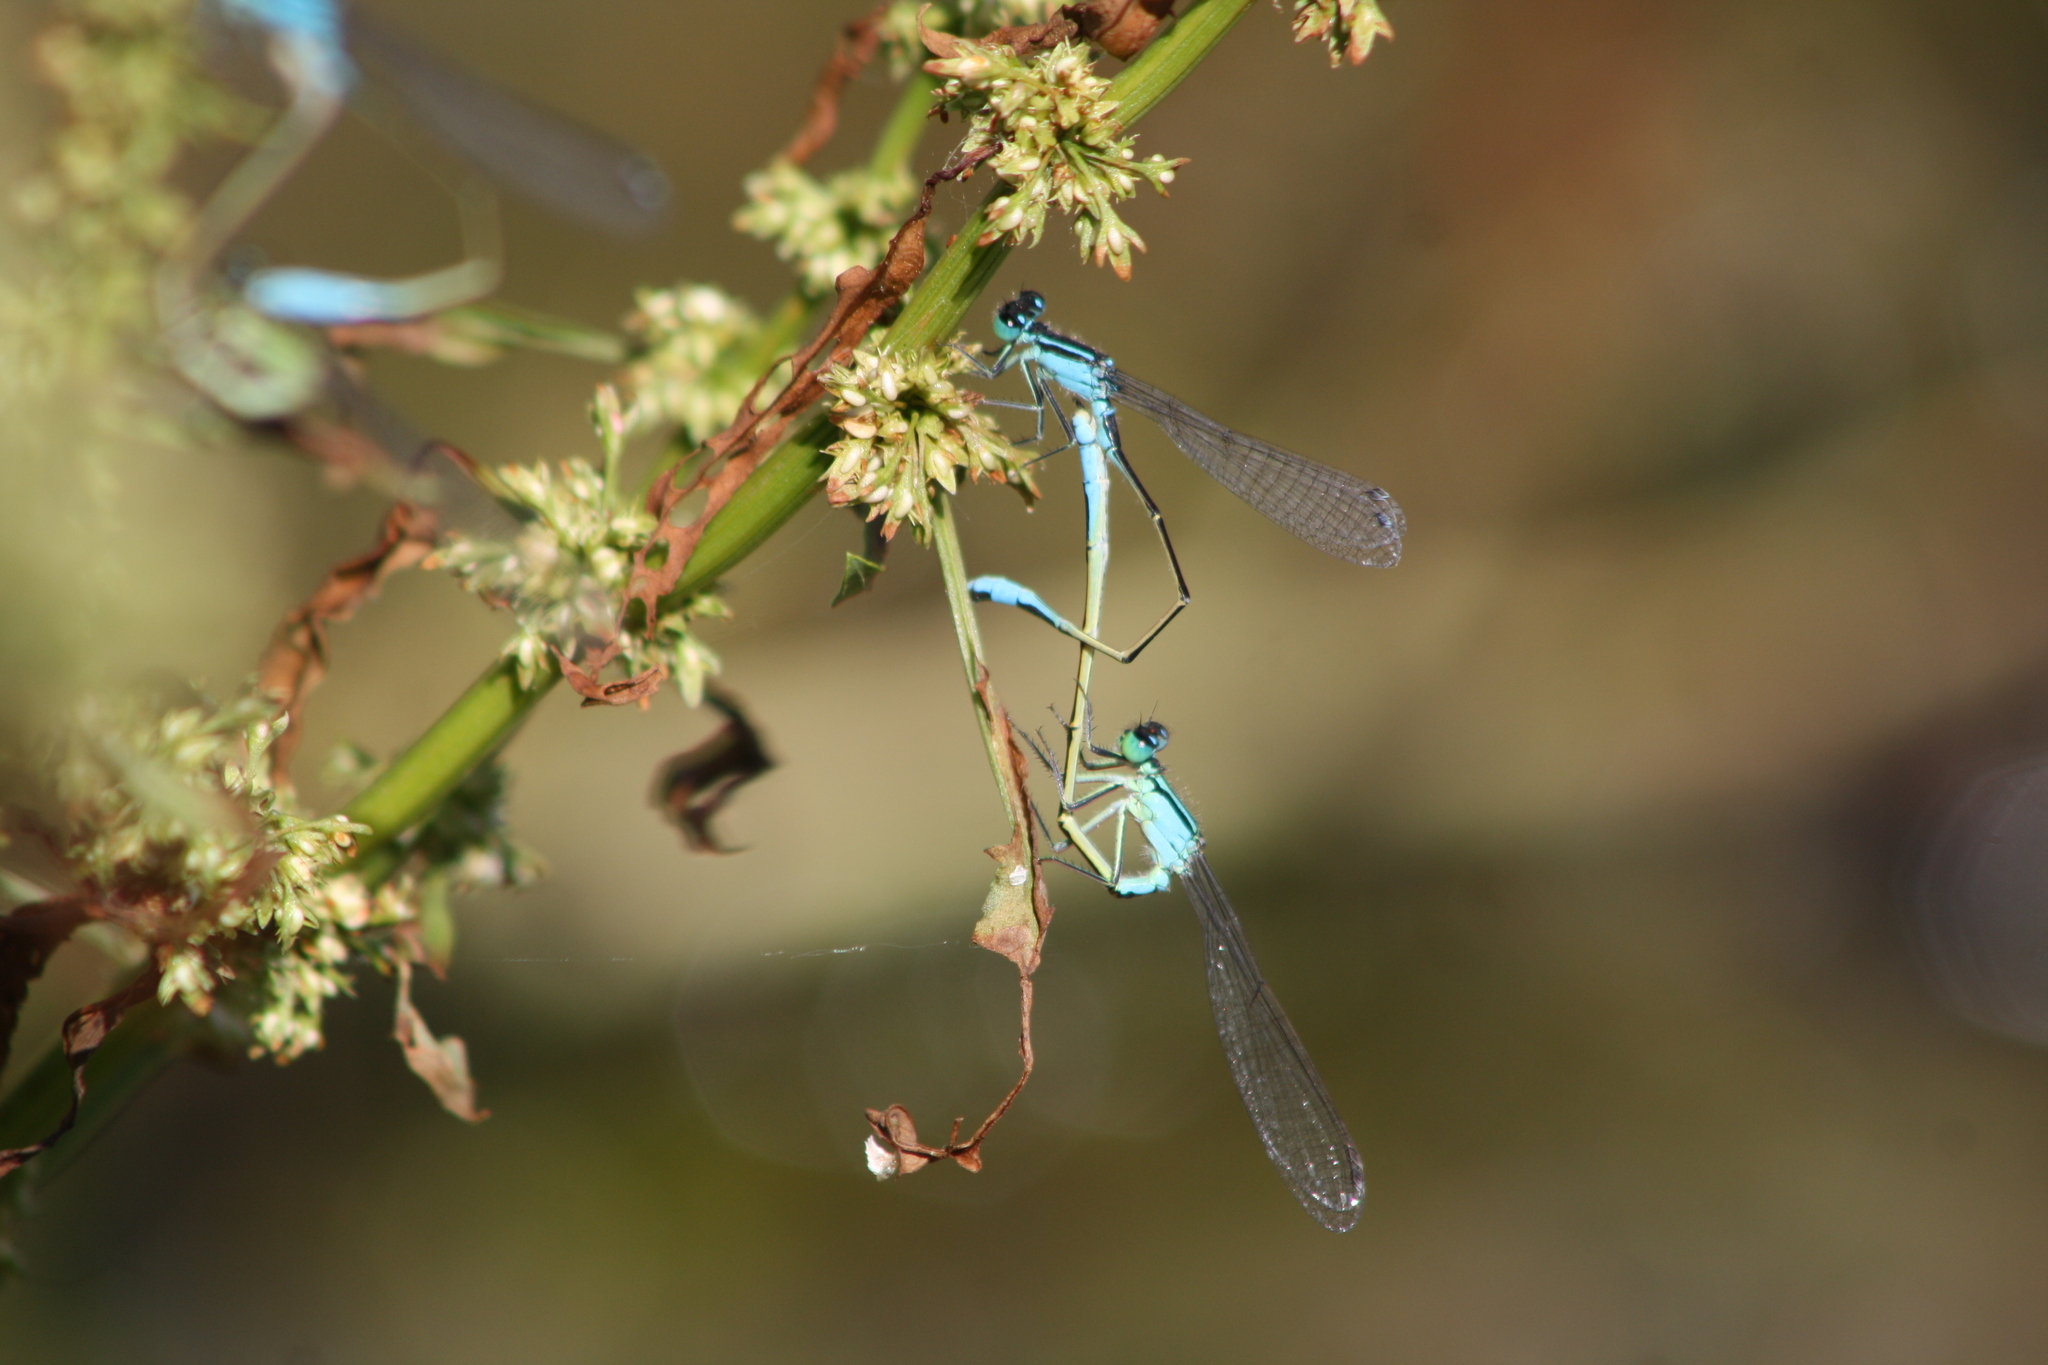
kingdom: Animalia
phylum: Arthropoda
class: Insecta
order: Odonata
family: Coenagrionidae
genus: Ischnura
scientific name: Ischnura elegans
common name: Blue-tailed damselfly
